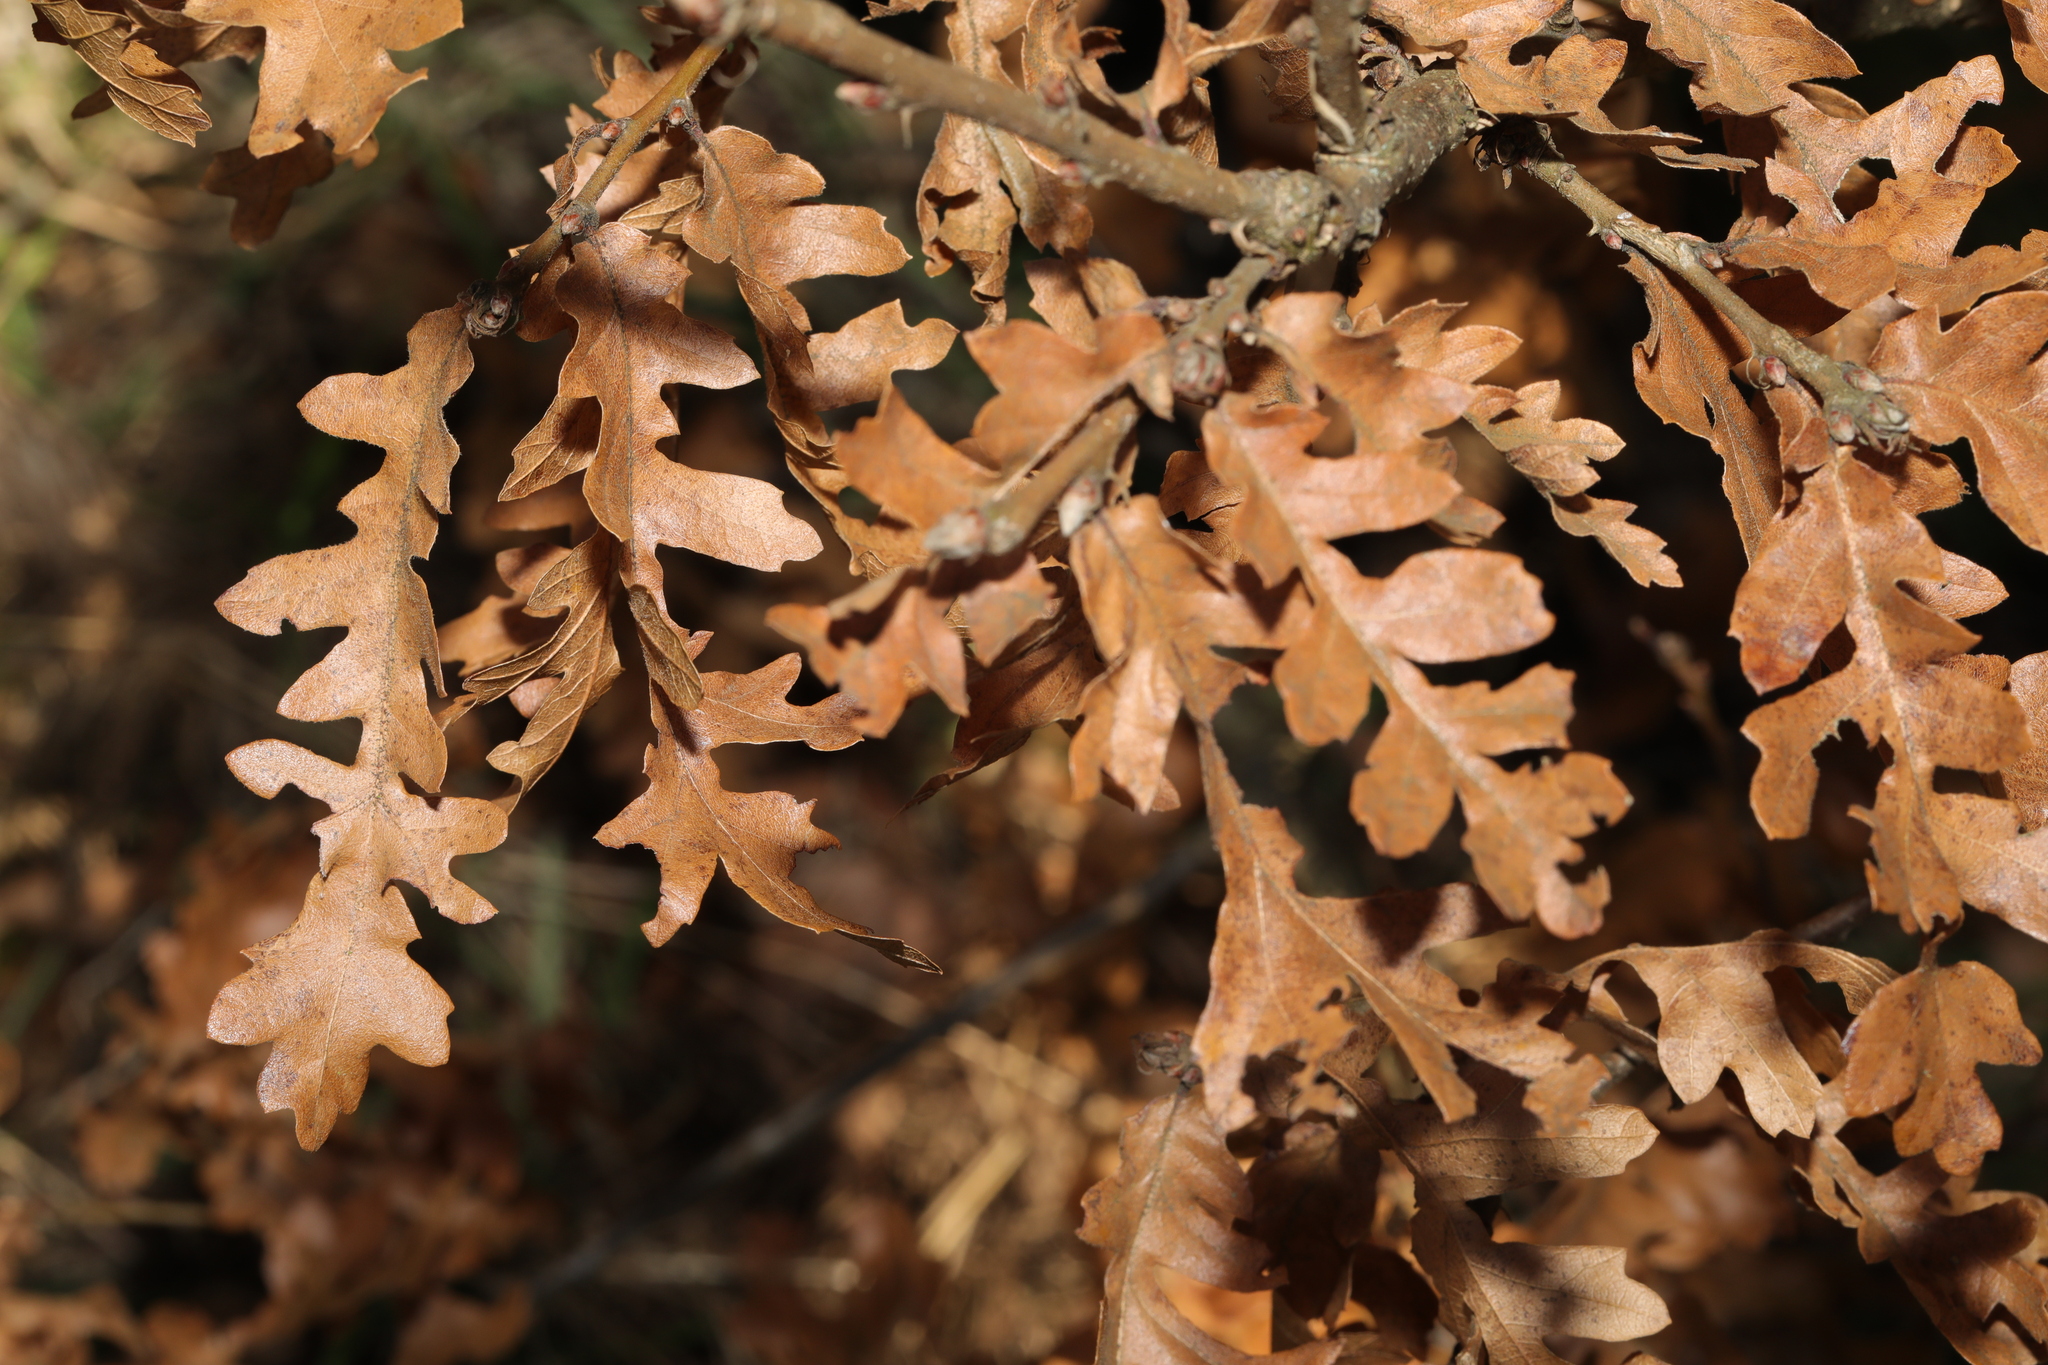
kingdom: Plantae
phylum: Tracheophyta
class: Magnoliopsida
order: Fagales
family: Fagaceae
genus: Quercus
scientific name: Quercus cerris
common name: Turkey oak
